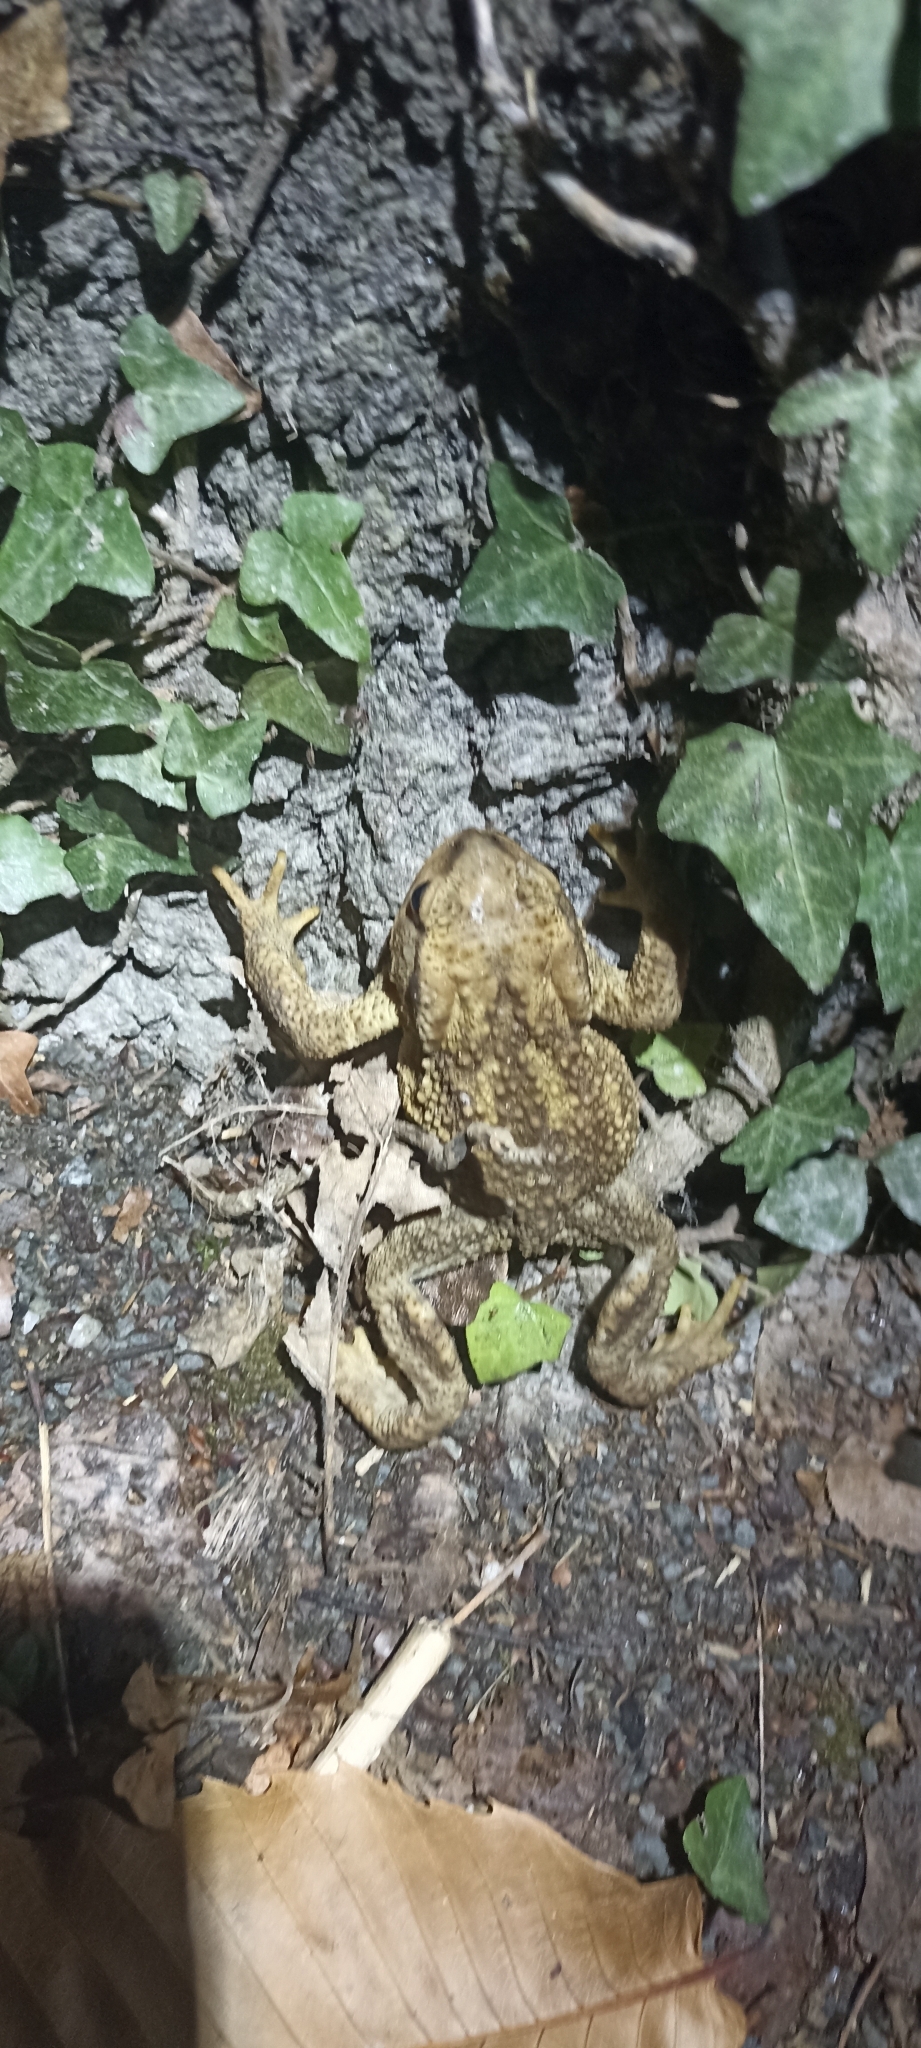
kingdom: Animalia
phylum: Chordata
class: Amphibia
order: Anura
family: Bufonidae
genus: Bufo
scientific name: Bufo spinosus
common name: Western common toad
